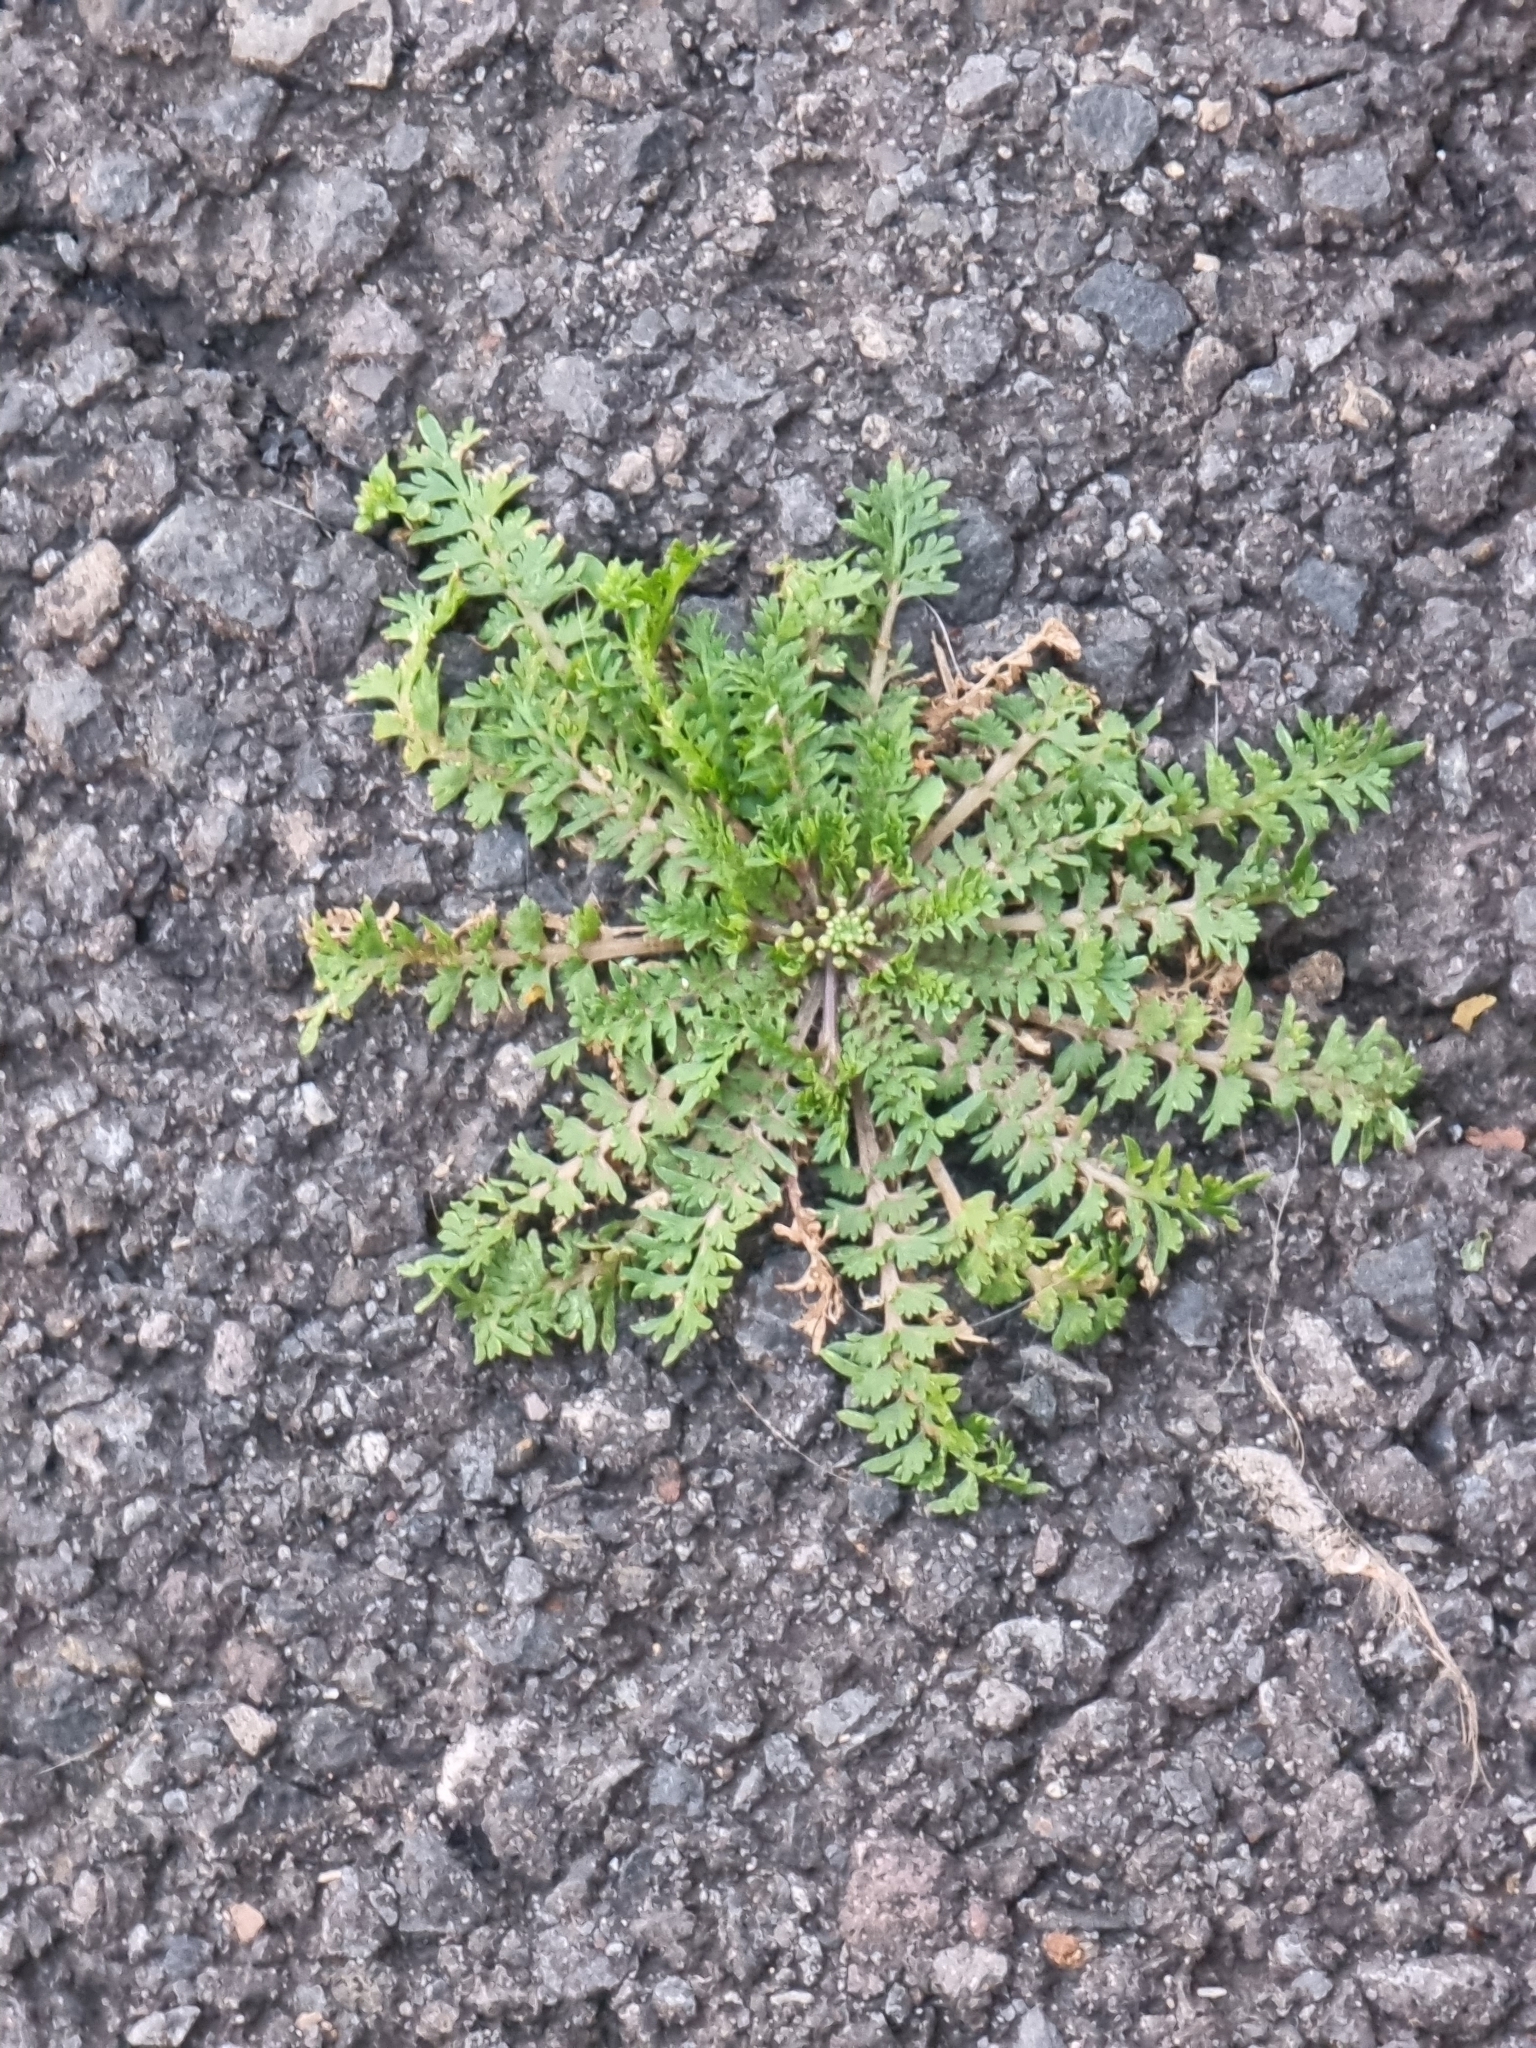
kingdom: Plantae
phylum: Tracheophyta
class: Magnoliopsida
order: Brassicales
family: Brassicaceae
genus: Lepidium
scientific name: Lepidium didymum
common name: Lesser swinecress
